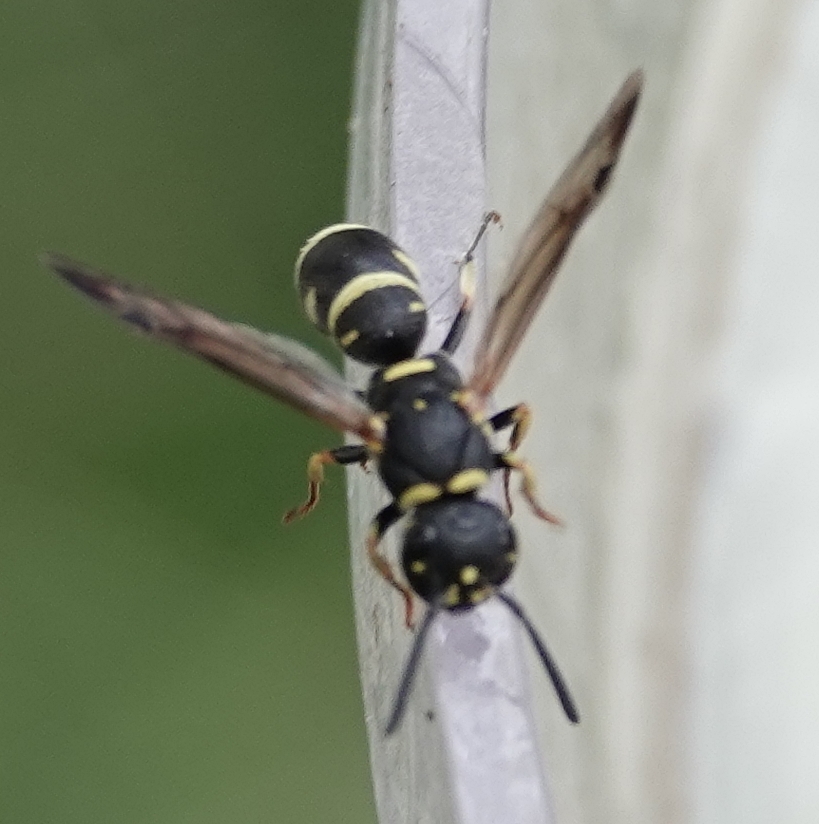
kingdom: Animalia
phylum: Arthropoda
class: Insecta
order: Hymenoptera
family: Eumenidae
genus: Parancistrocerus
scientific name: Parancistrocerus pedestris
